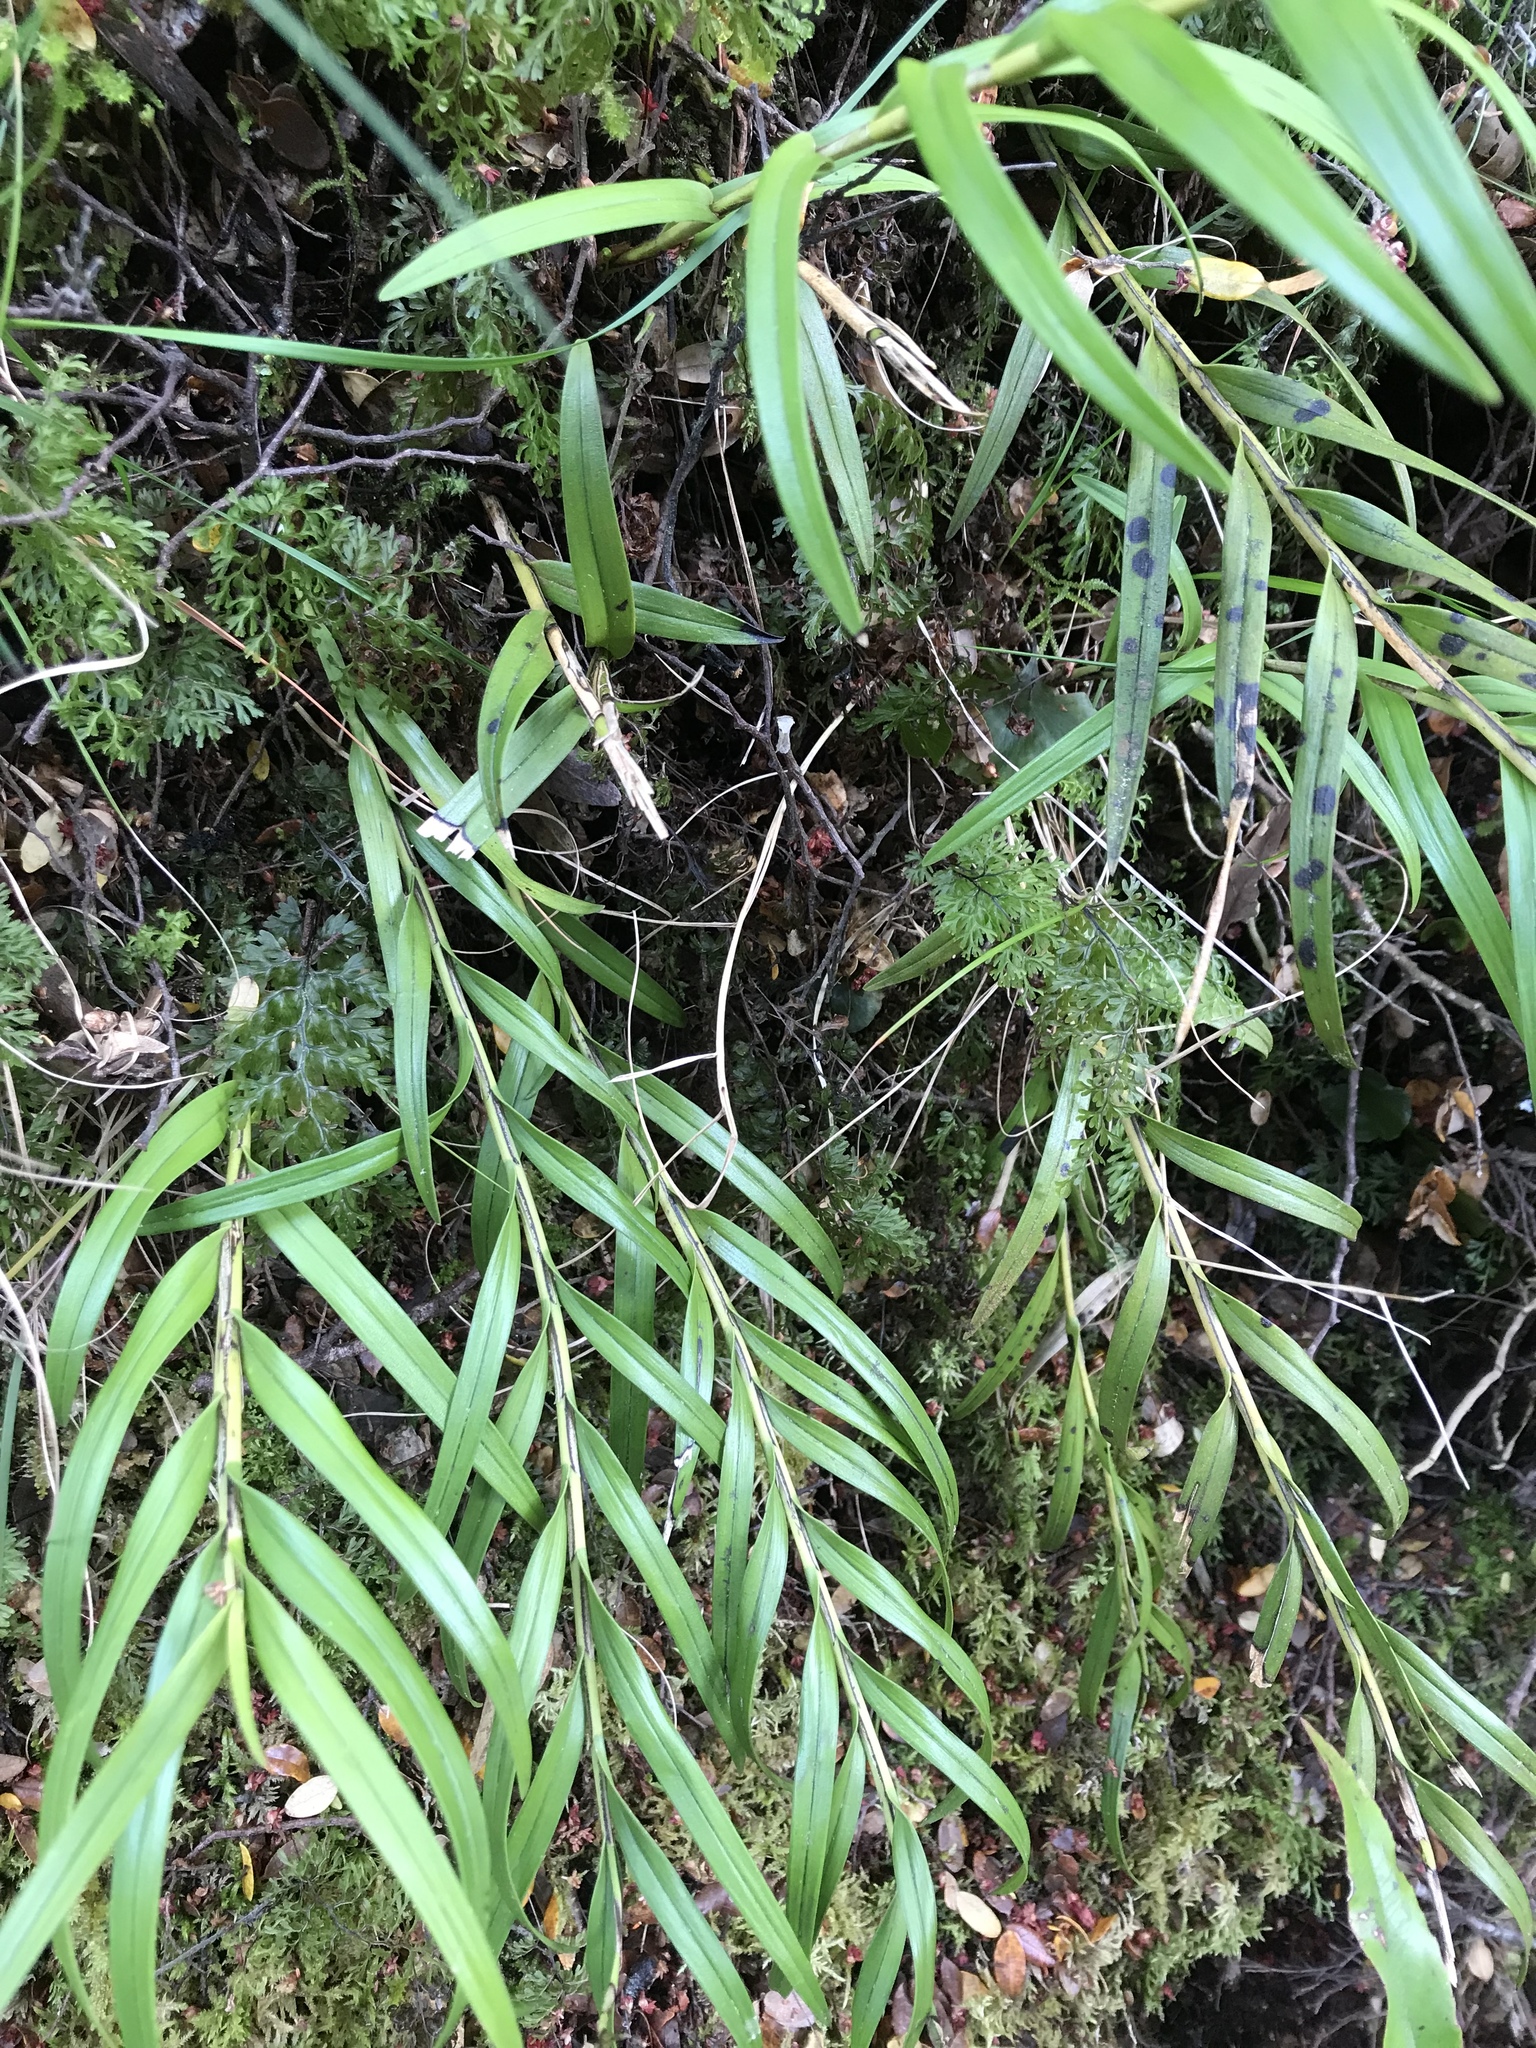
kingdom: Plantae
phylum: Tracheophyta
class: Liliopsida
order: Asparagales
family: Orchidaceae
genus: Earina
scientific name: Earina autumnalis
